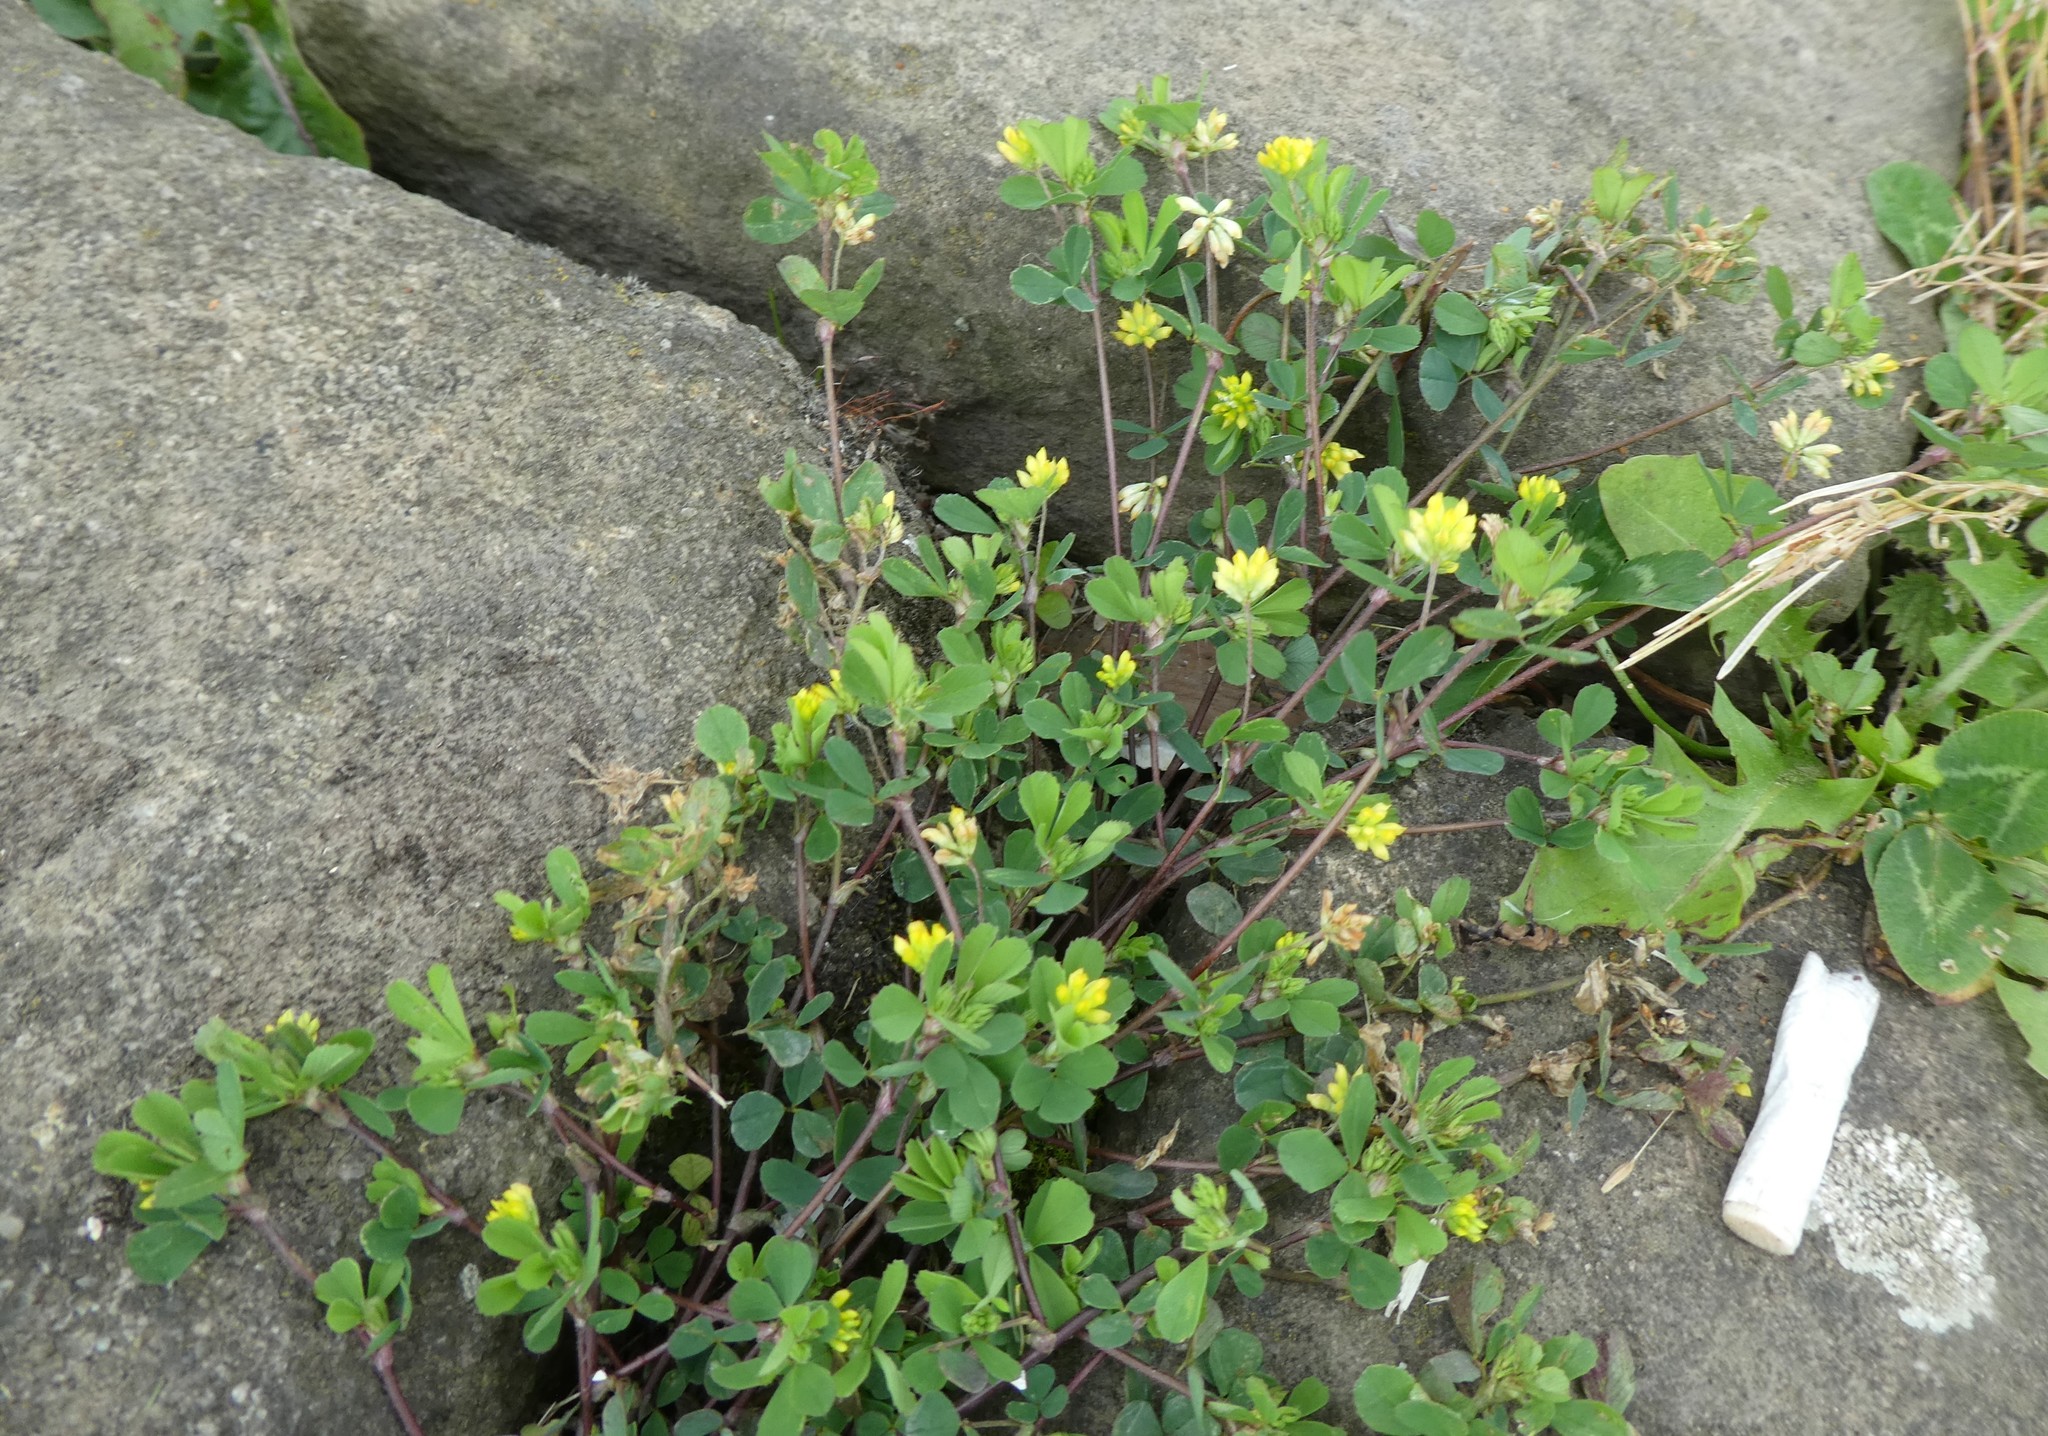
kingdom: Plantae
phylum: Tracheophyta
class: Magnoliopsida
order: Fabales
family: Fabaceae
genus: Trifolium
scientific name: Trifolium dubium
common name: Suckling clover
